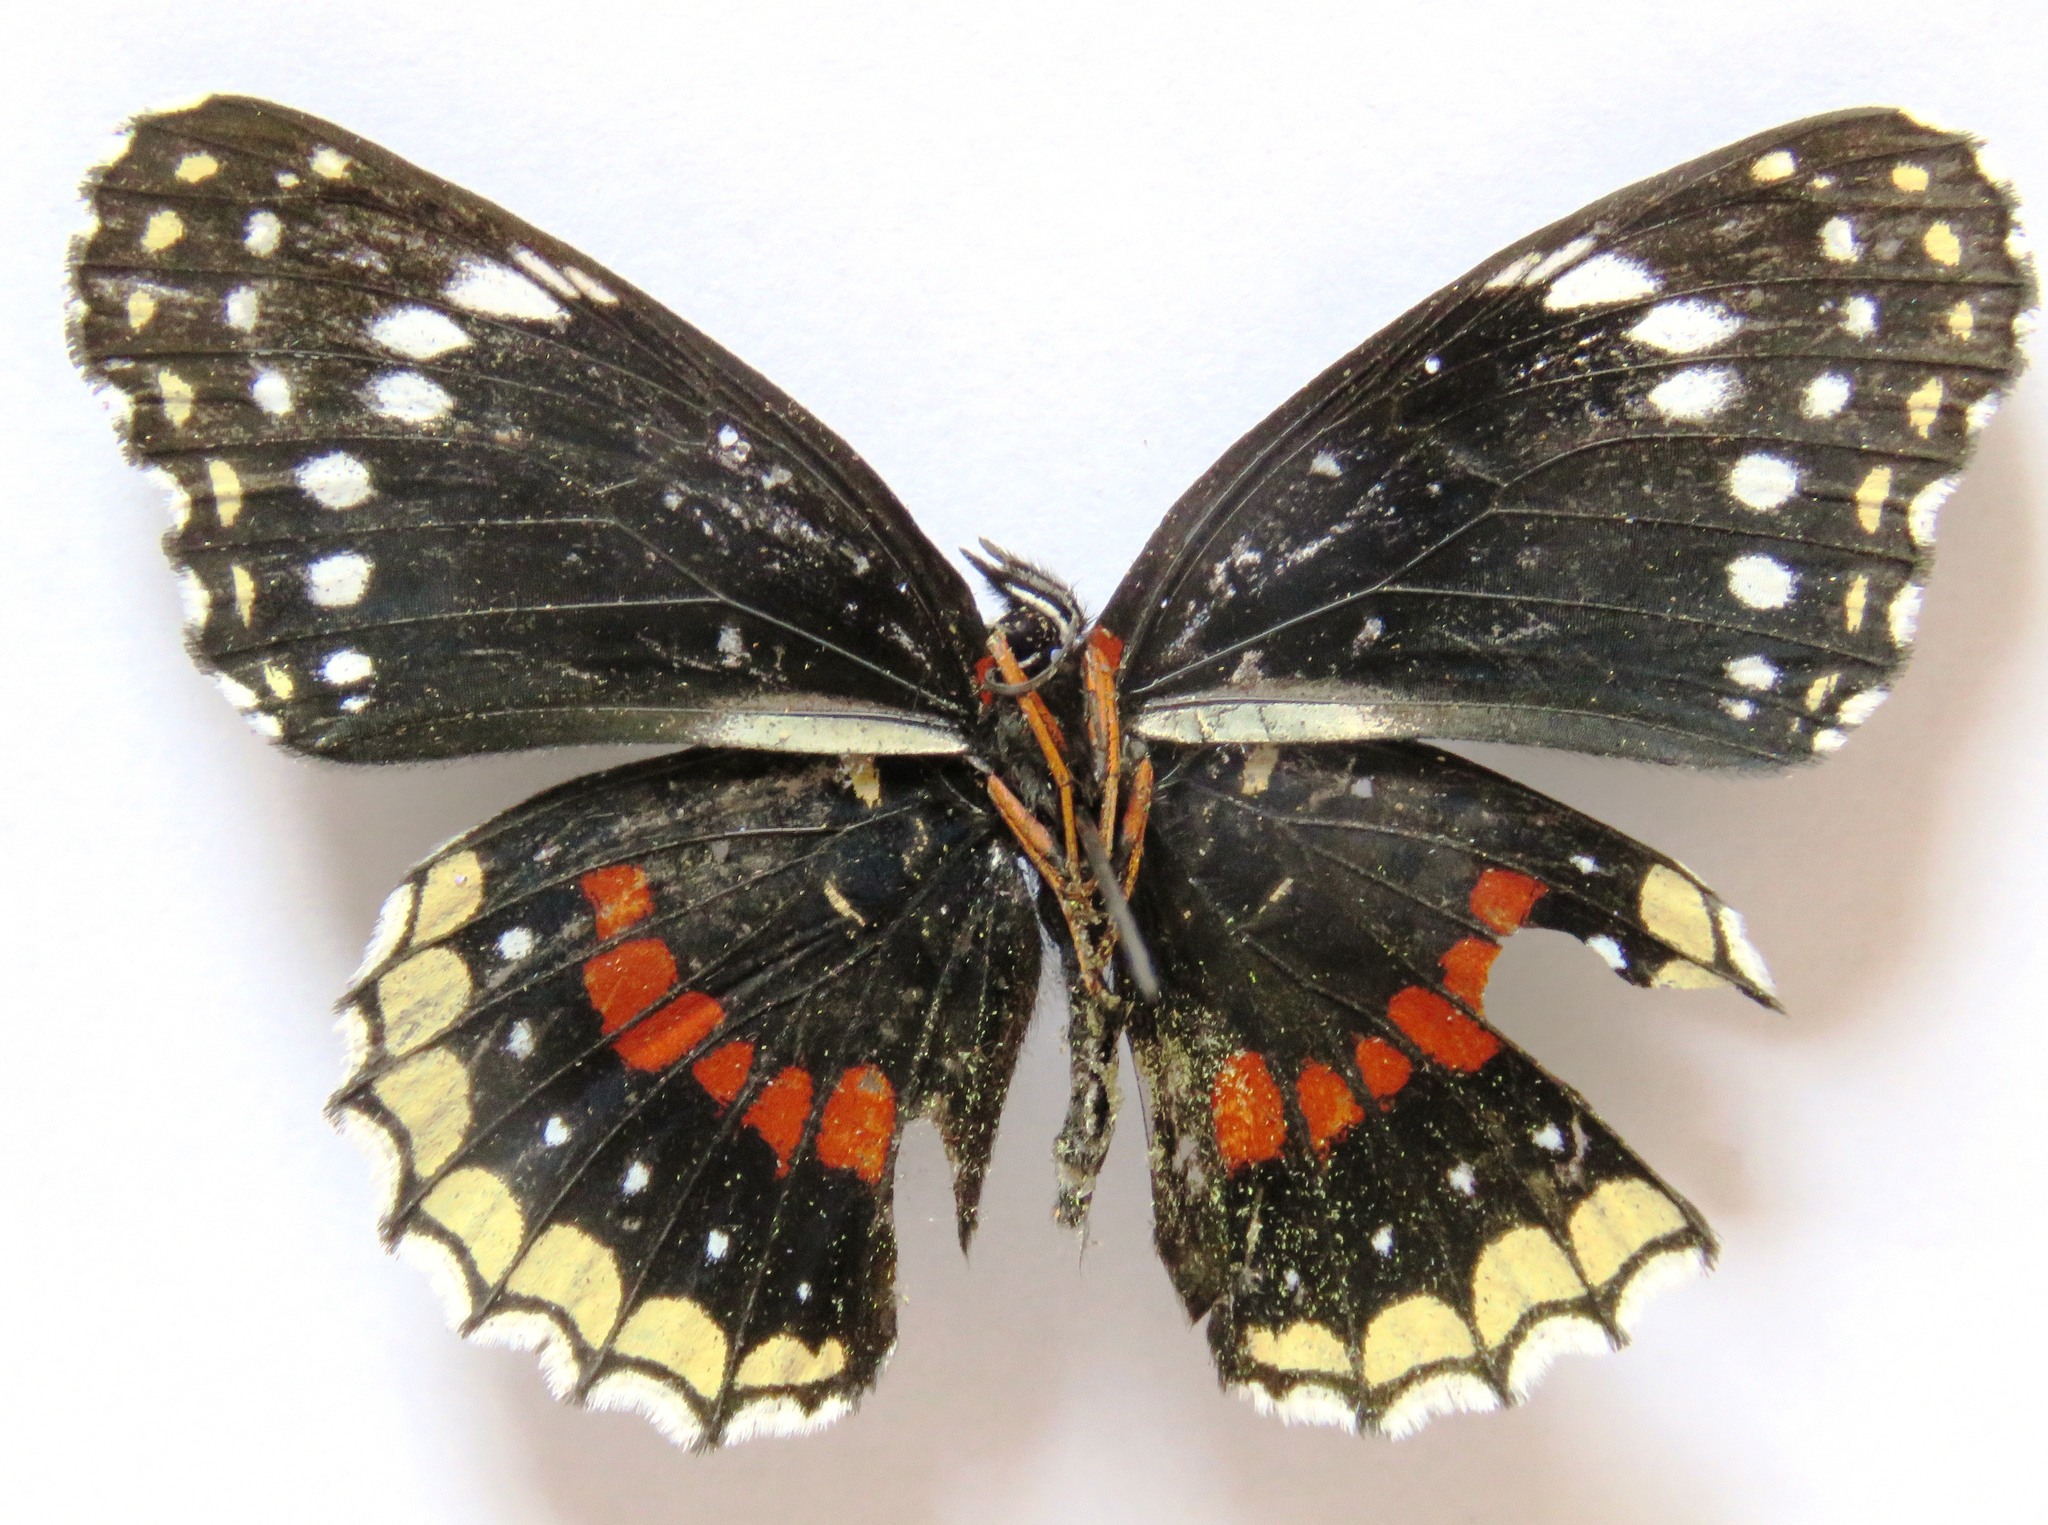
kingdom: Animalia
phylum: Arthropoda
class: Insecta
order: Lepidoptera
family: Nymphalidae
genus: Chlosyne
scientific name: Chlosyne hippodrome
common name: Simple patch
